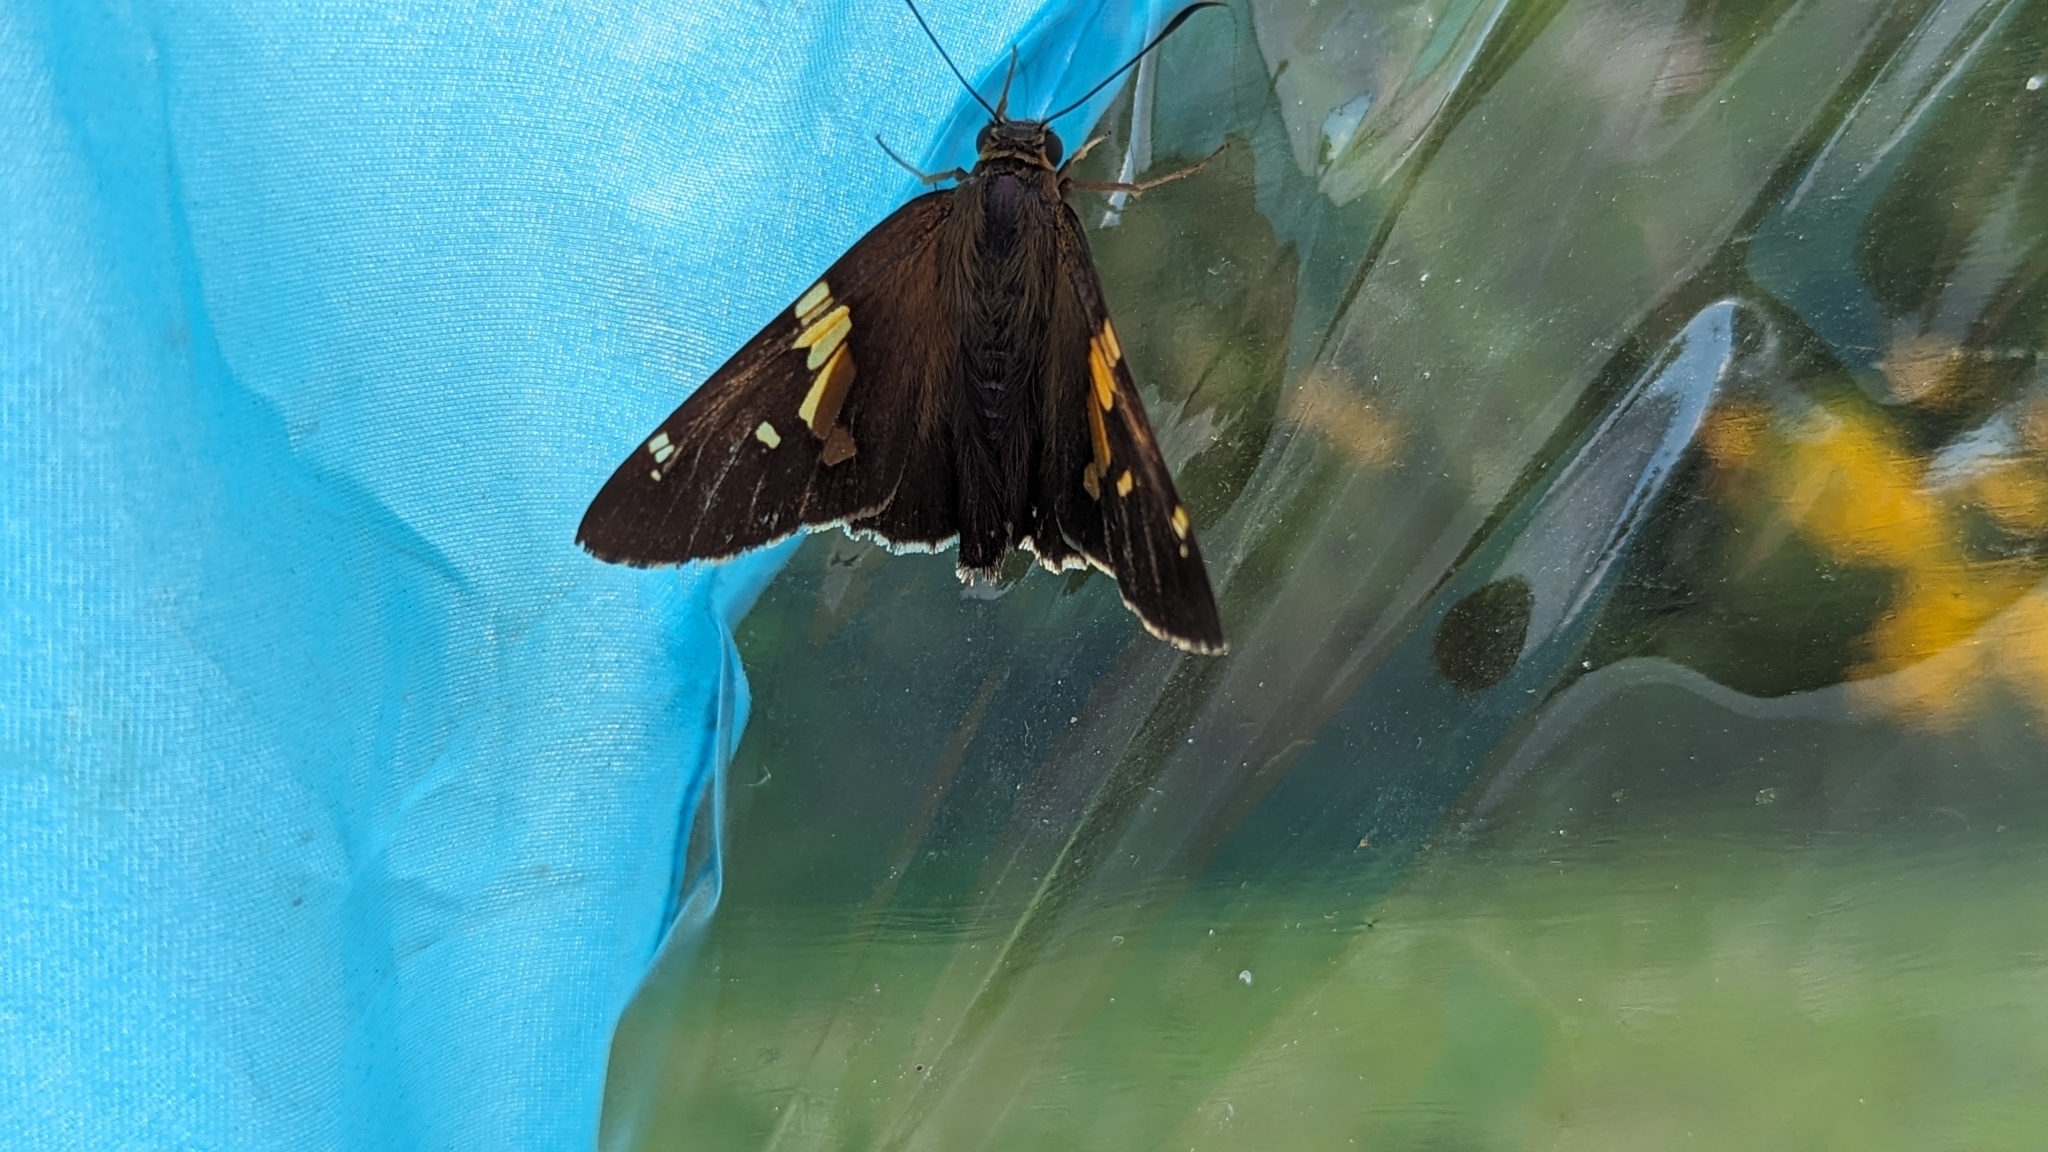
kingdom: Animalia
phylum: Arthropoda
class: Insecta
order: Lepidoptera
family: Hesperiidae
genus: Epargyreus
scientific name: Epargyreus clarus
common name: Silver-spotted skipper
